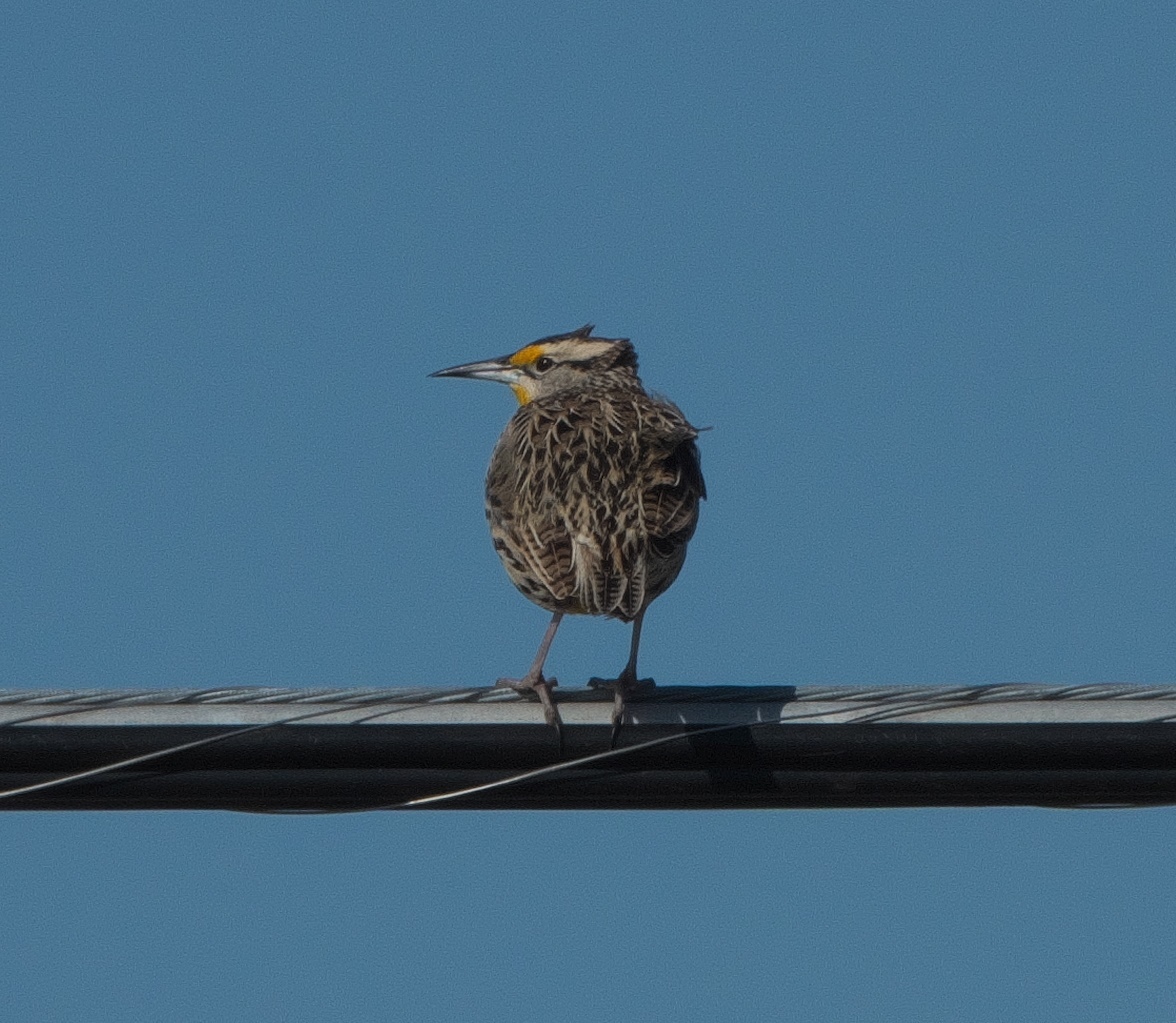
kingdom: Animalia
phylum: Chordata
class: Aves
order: Passeriformes
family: Icteridae
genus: Sturnella
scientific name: Sturnella magna
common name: Eastern meadowlark
